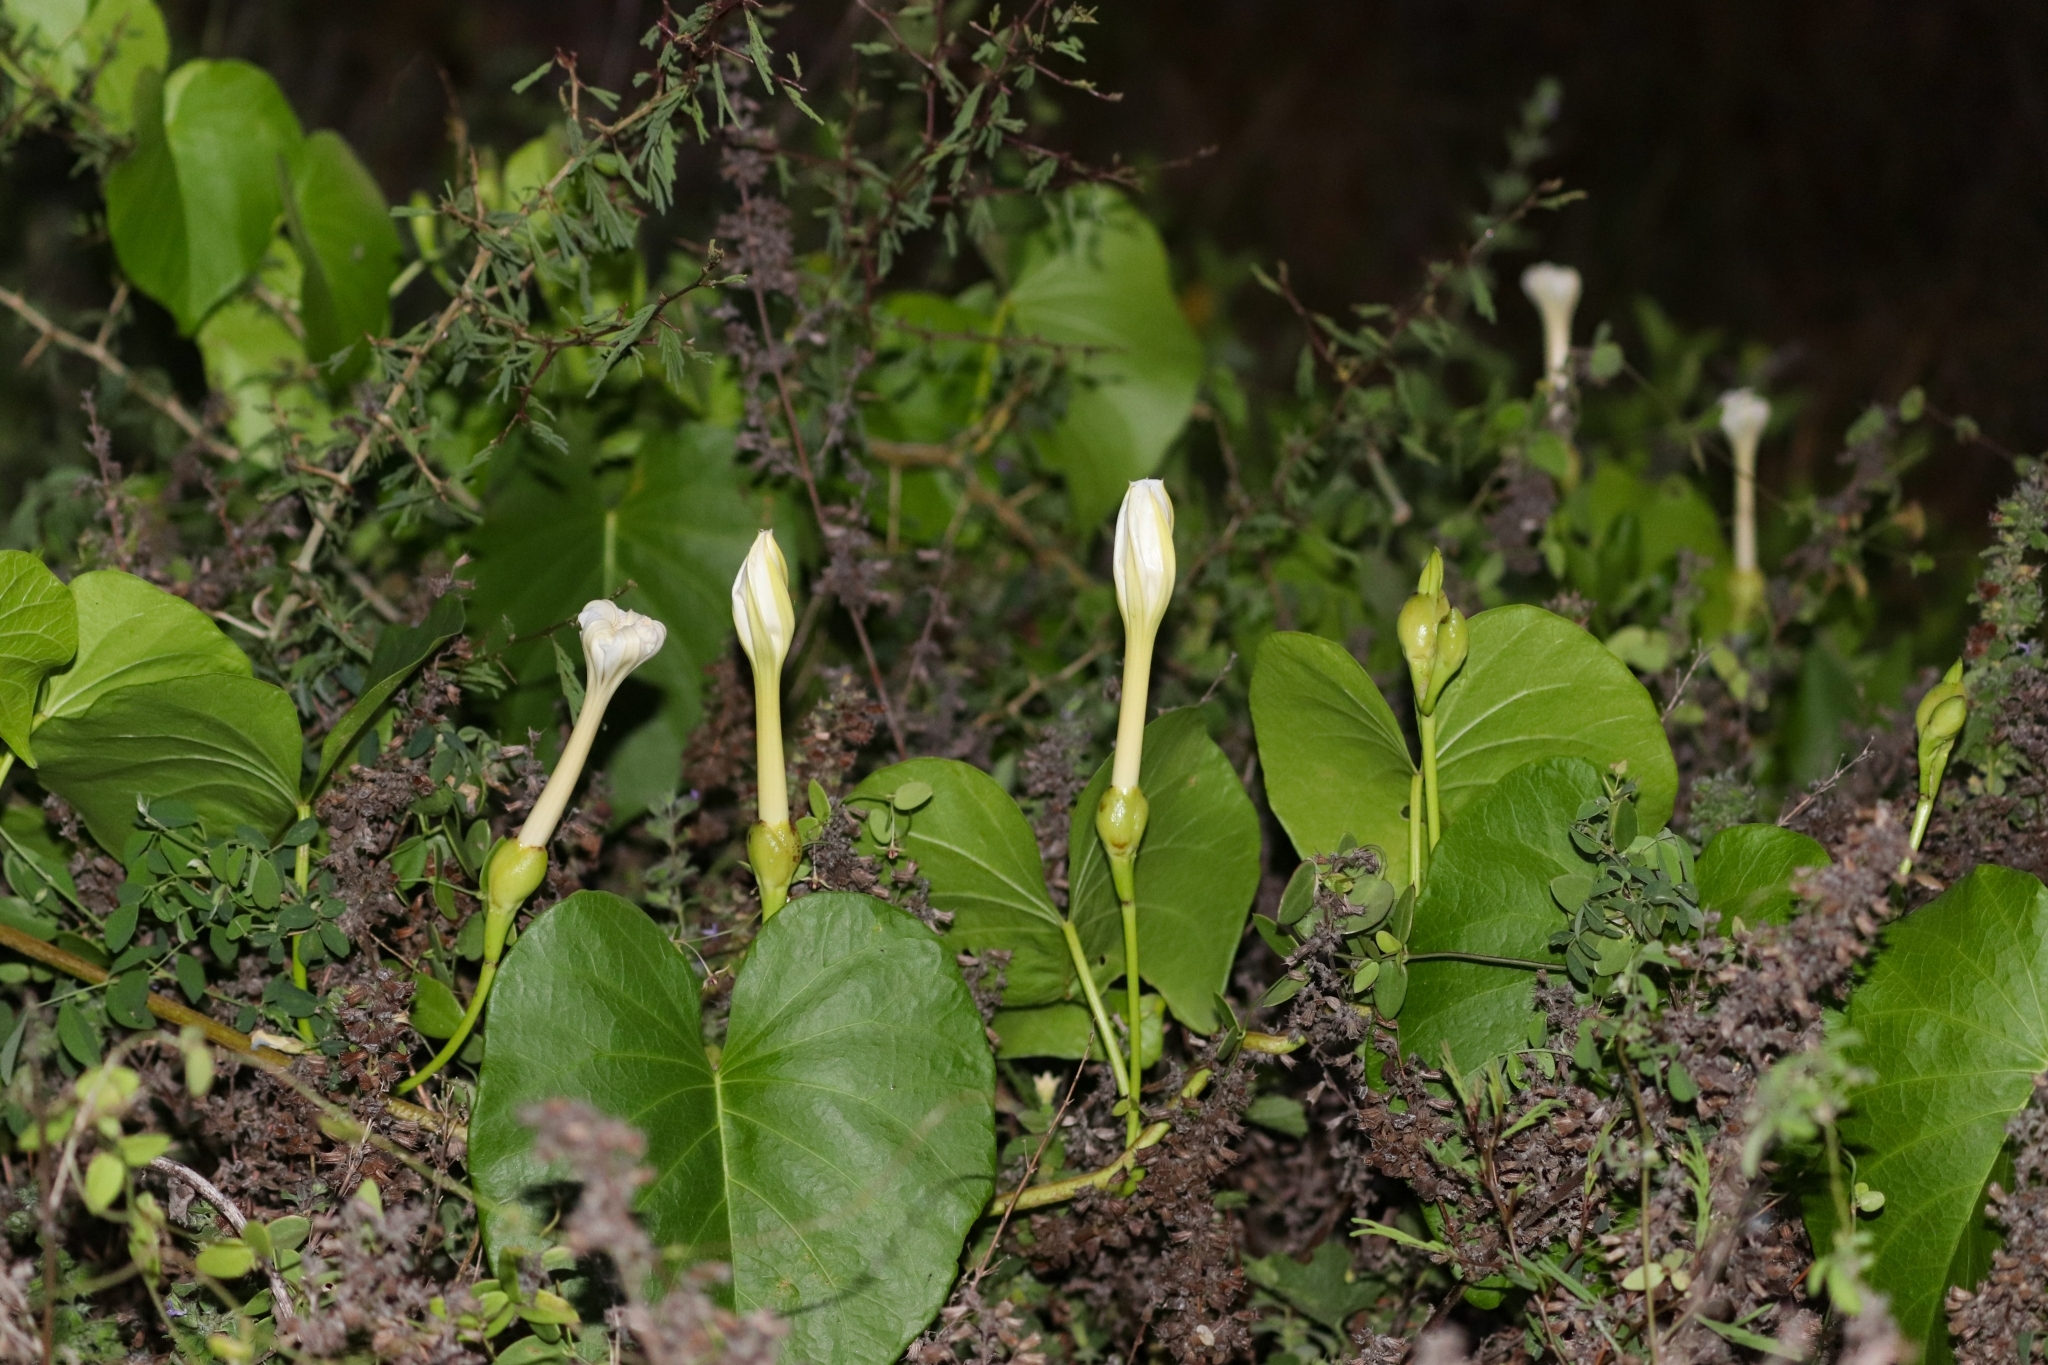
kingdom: Plantae
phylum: Tracheophyta
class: Magnoliopsida
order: Solanales
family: Convolvulaceae
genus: Ipomoea
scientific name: Ipomoea violacea
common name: Beach moonflower
